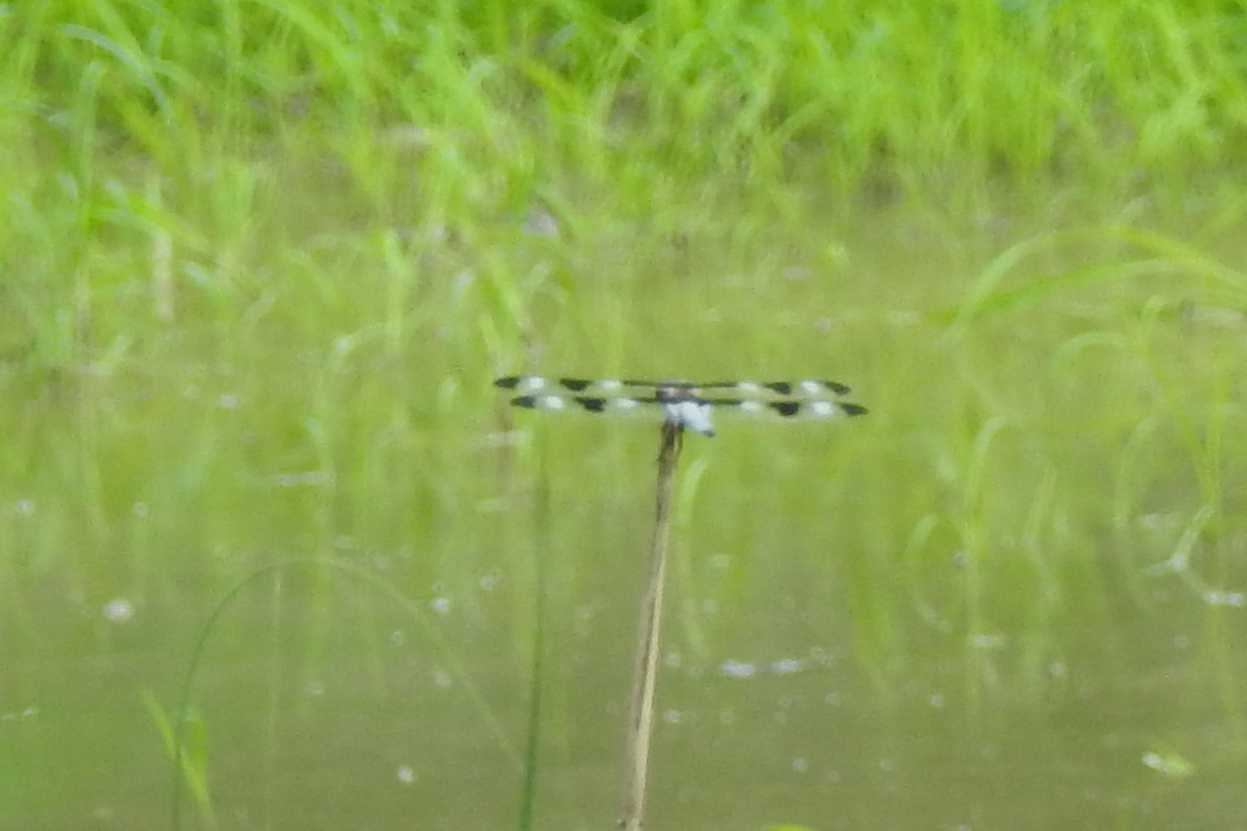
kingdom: Animalia
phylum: Arthropoda
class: Insecta
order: Odonata
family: Libellulidae
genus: Libellula
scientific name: Libellula pulchella
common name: Twelve-spotted skimmer
